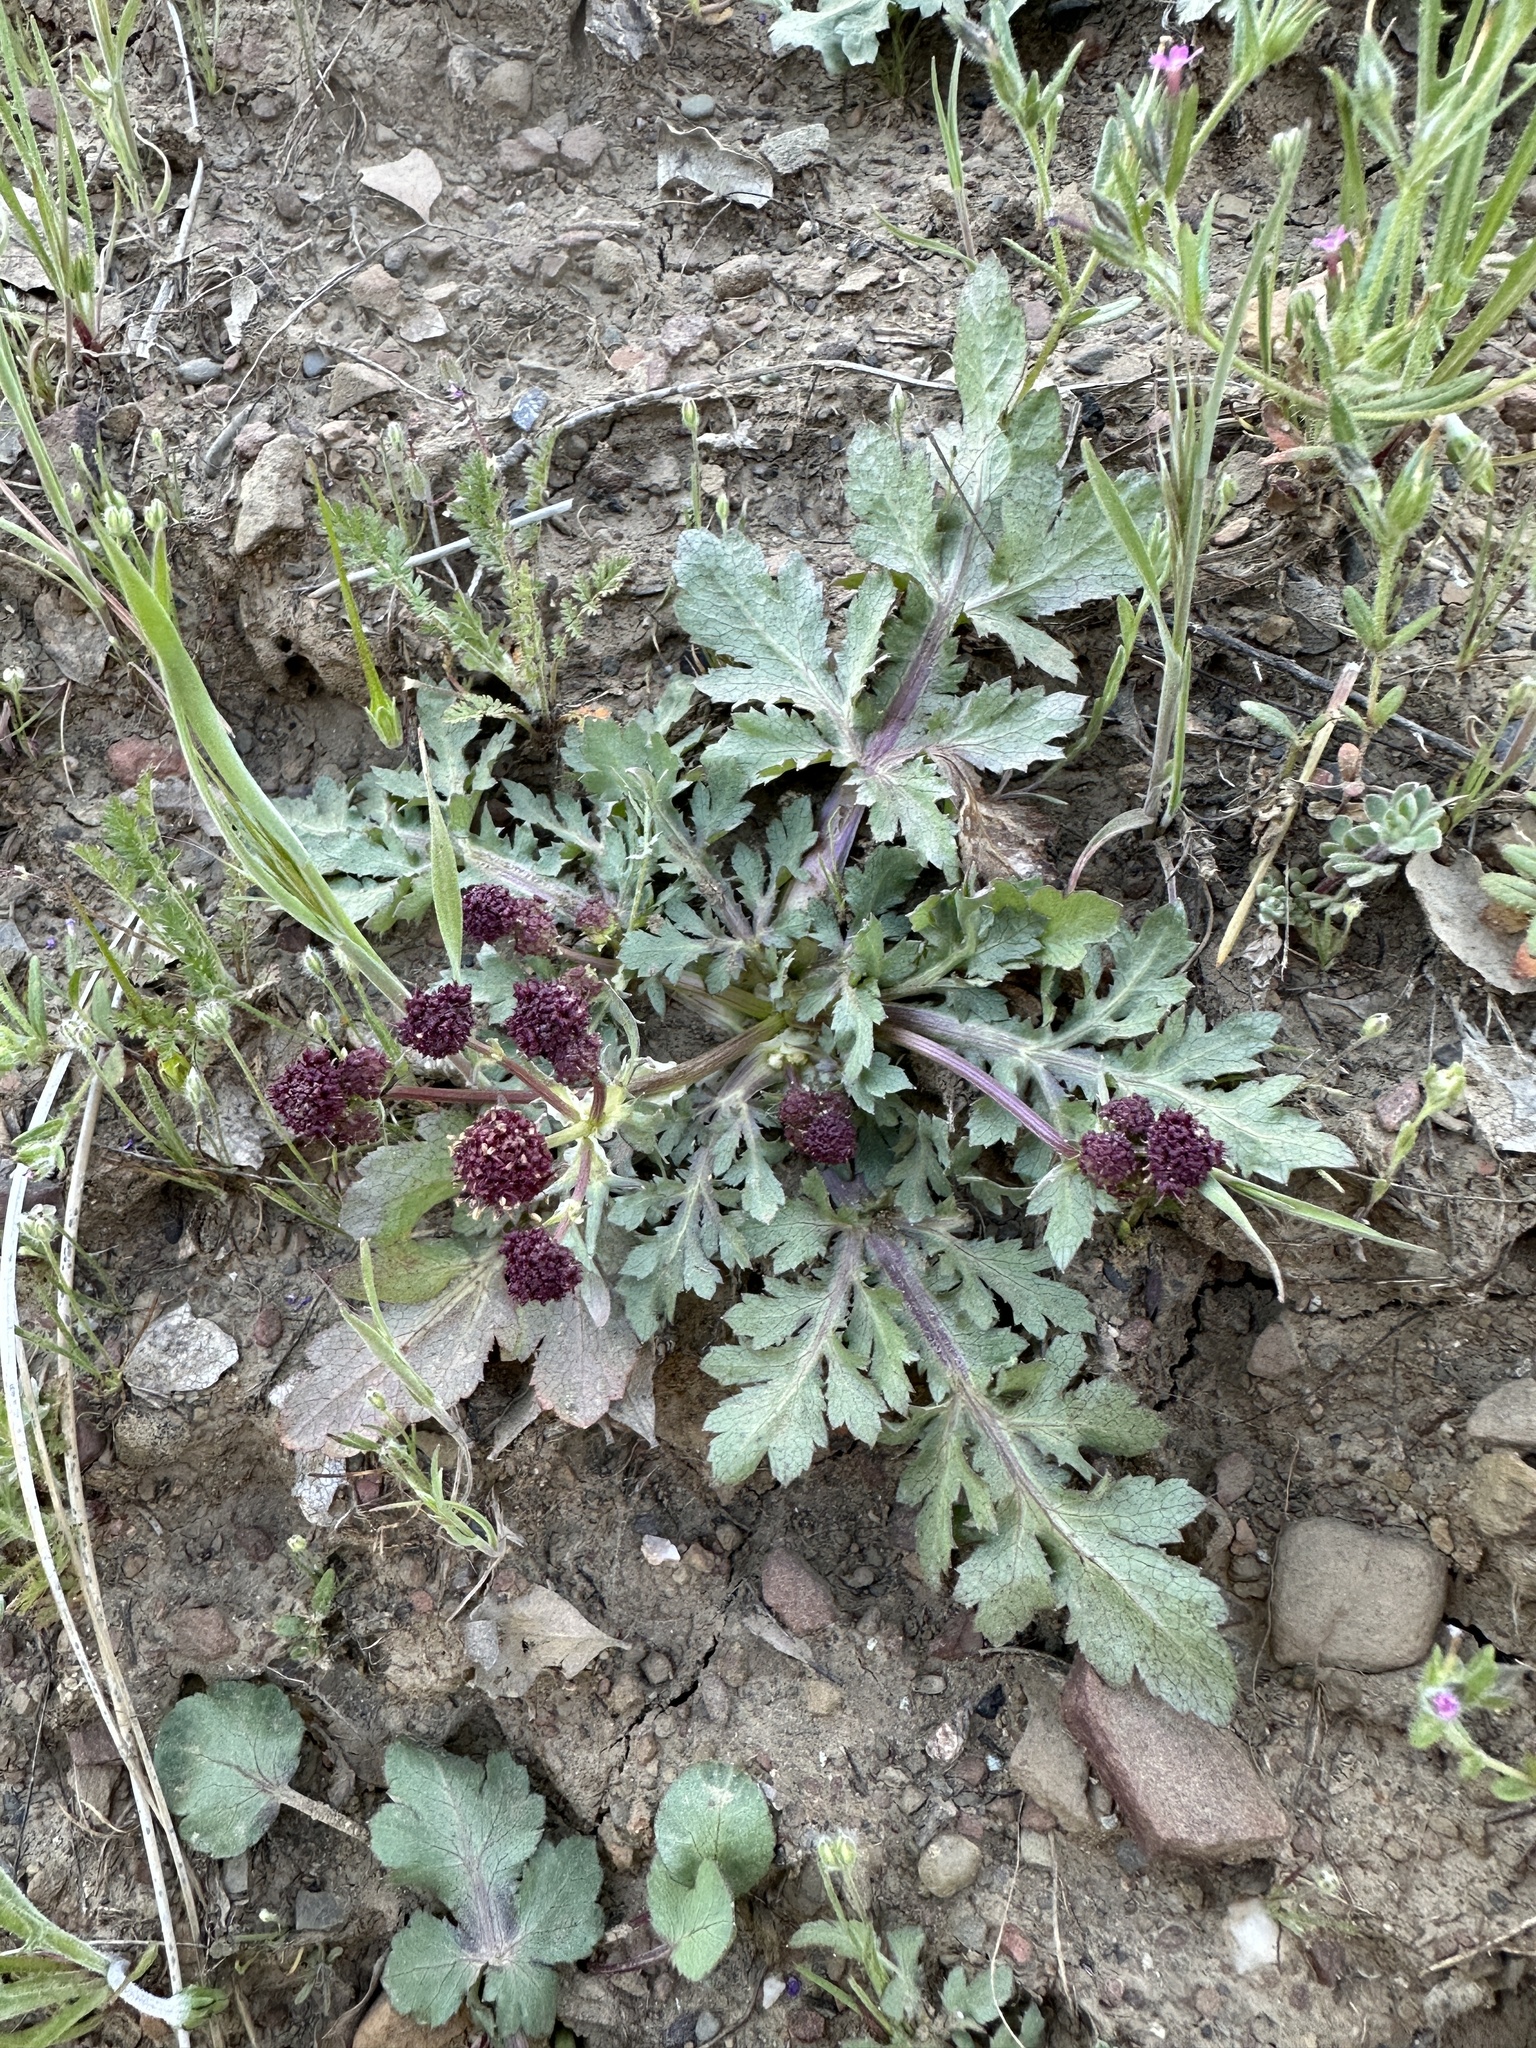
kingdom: Plantae
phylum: Tracheophyta
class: Magnoliopsida
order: Apiales
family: Apiaceae
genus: Sanicula
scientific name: Sanicula bipinnatifida
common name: Shoe-buttons
